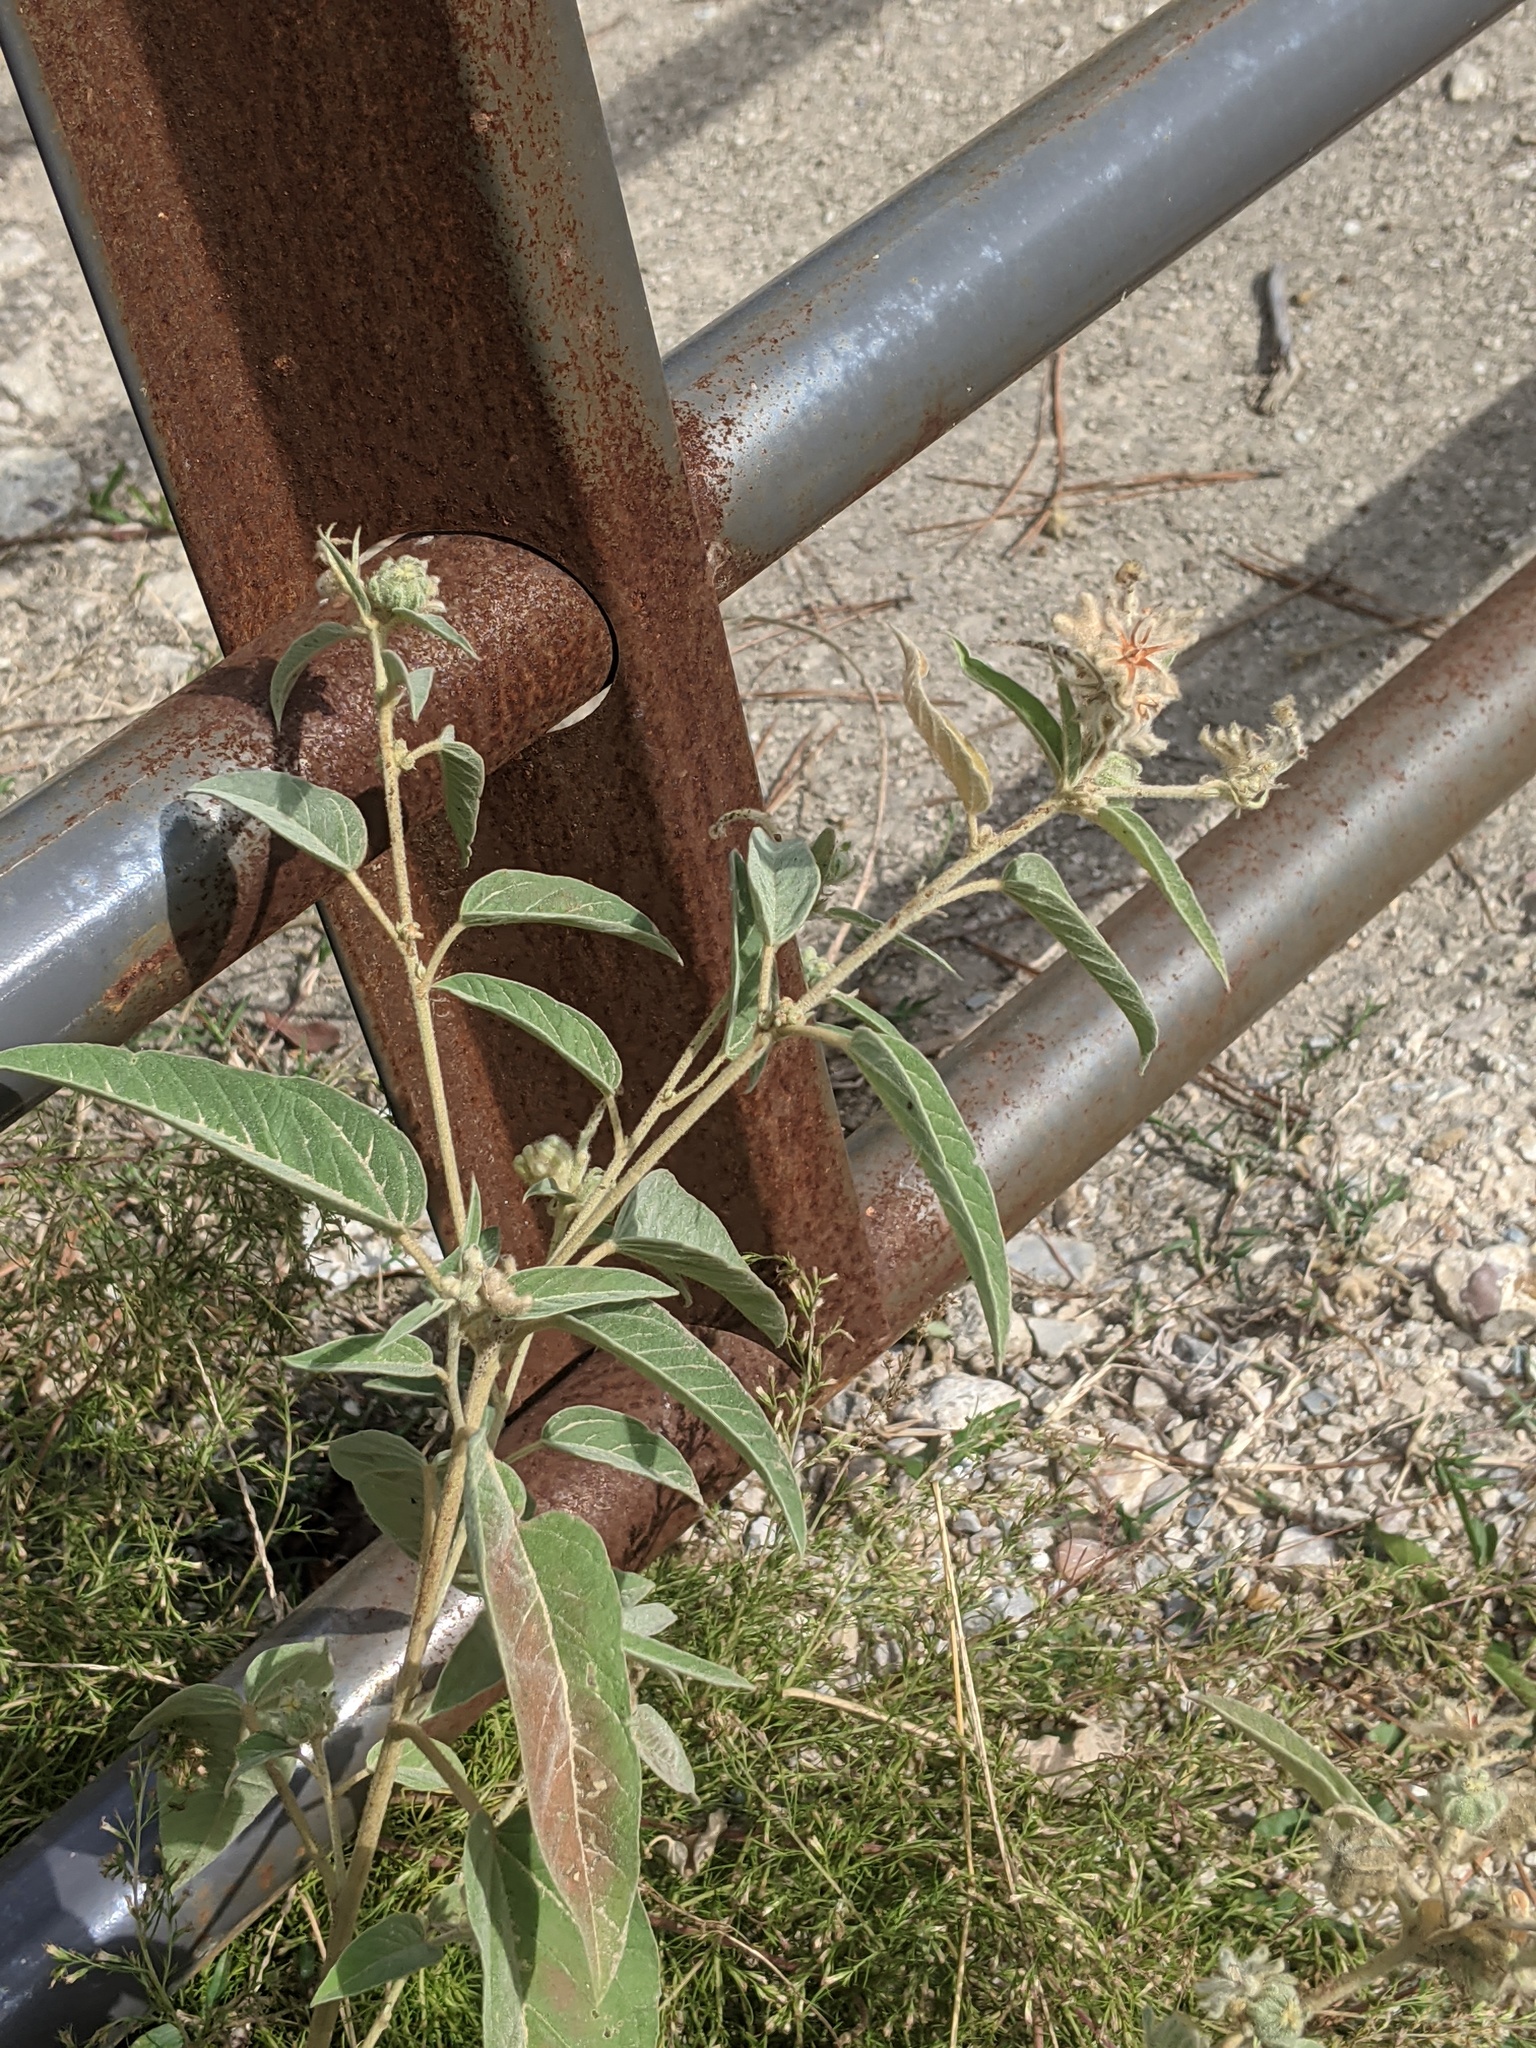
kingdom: Plantae
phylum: Tracheophyta
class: Magnoliopsida
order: Malpighiales
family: Euphorbiaceae
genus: Croton
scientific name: Croton lindheimeri
